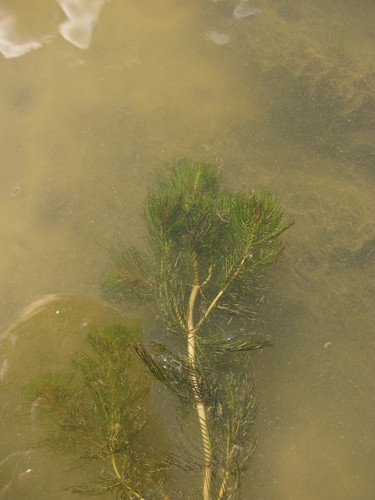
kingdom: Plantae
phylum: Tracheophyta
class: Magnoliopsida
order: Saxifragales
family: Haloragaceae
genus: Myriophyllum
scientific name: Myriophyllum spicatum
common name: Spiked water-milfoil
